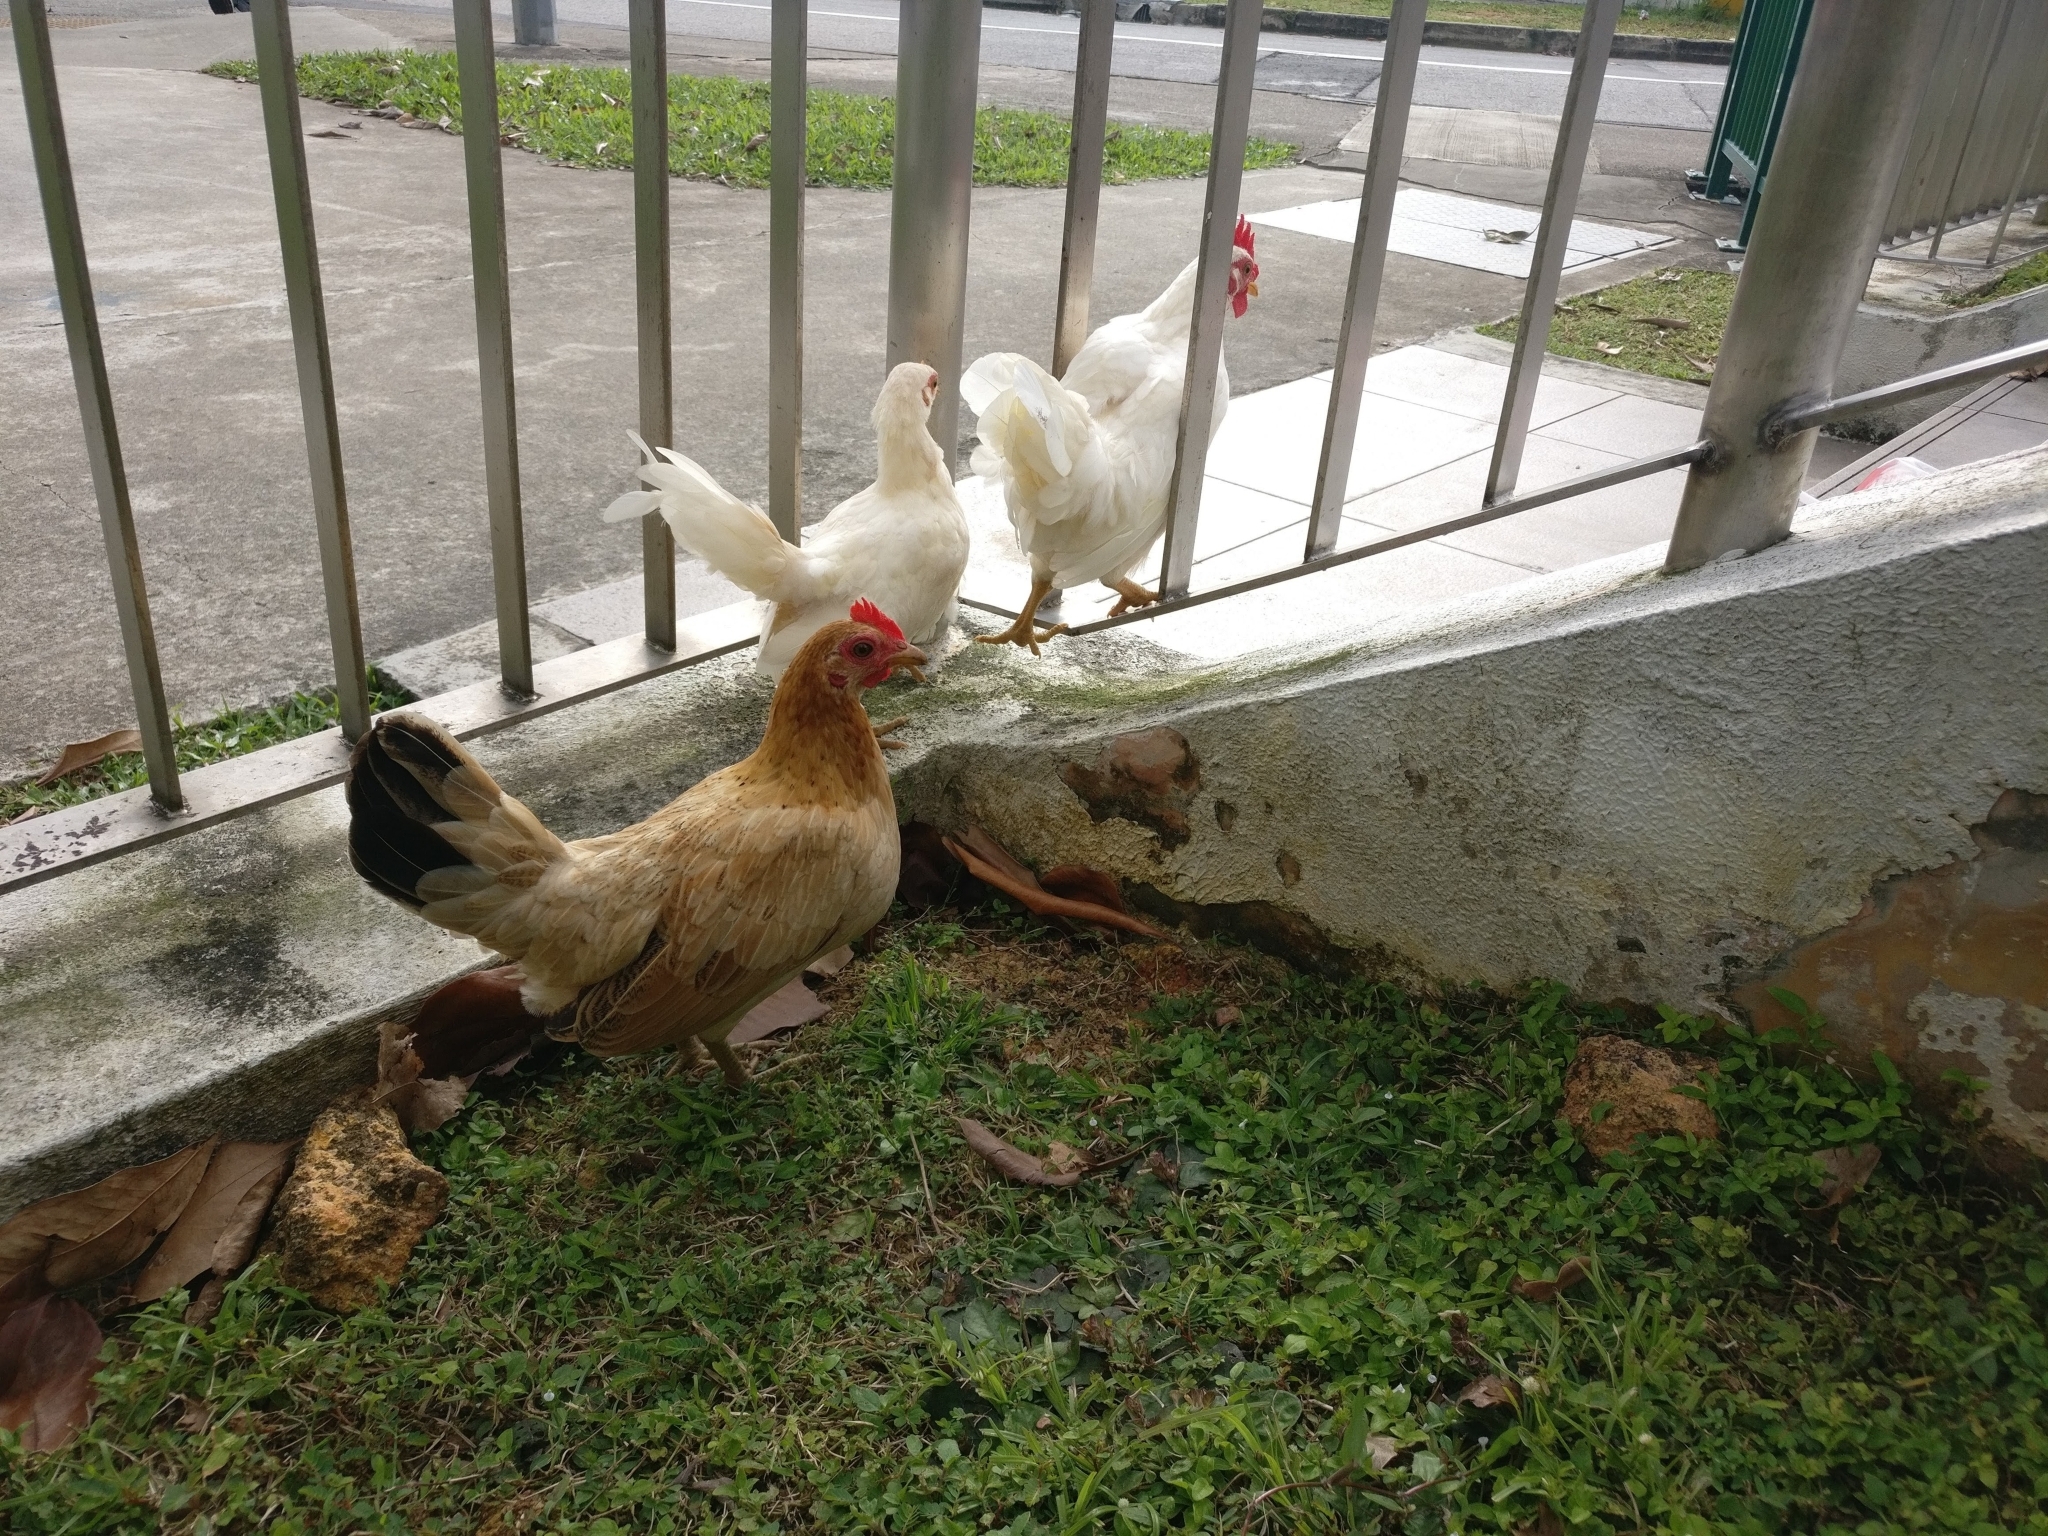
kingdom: Animalia
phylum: Chordata
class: Aves
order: Galliformes
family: Phasianidae
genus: Gallus
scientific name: Gallus gallus
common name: Red junglefowl
